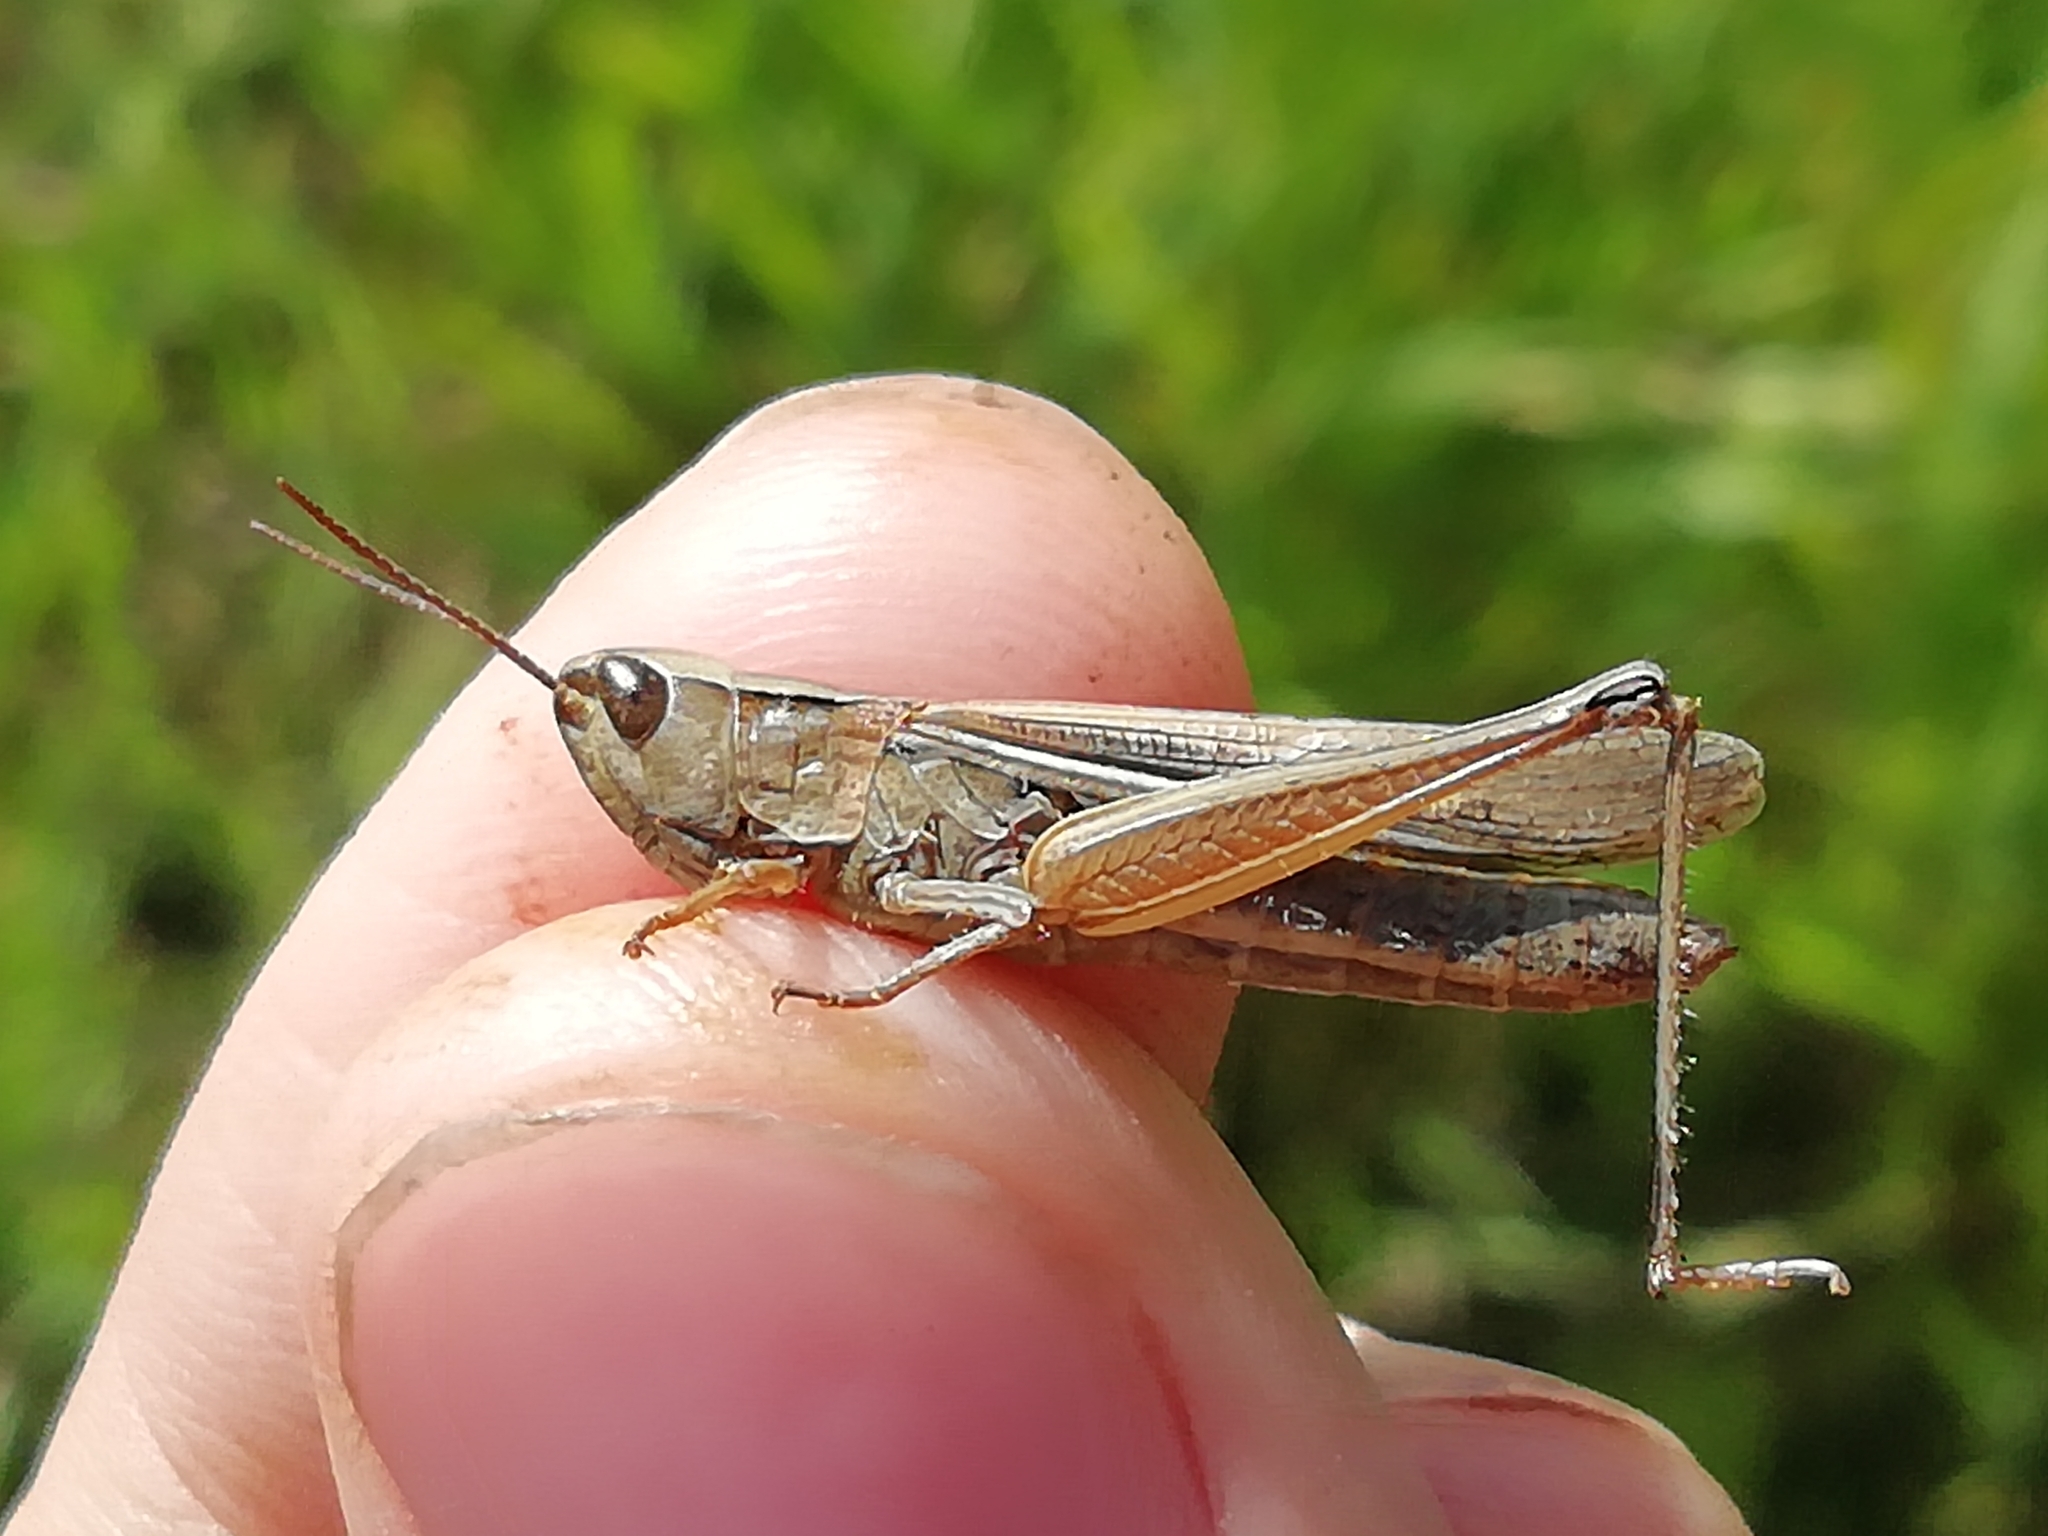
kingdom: Animalia
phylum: Arthropoda
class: Insecta
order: Orthoptera
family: Acrididae
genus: Chorthippus
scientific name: Chorthippus karelini
